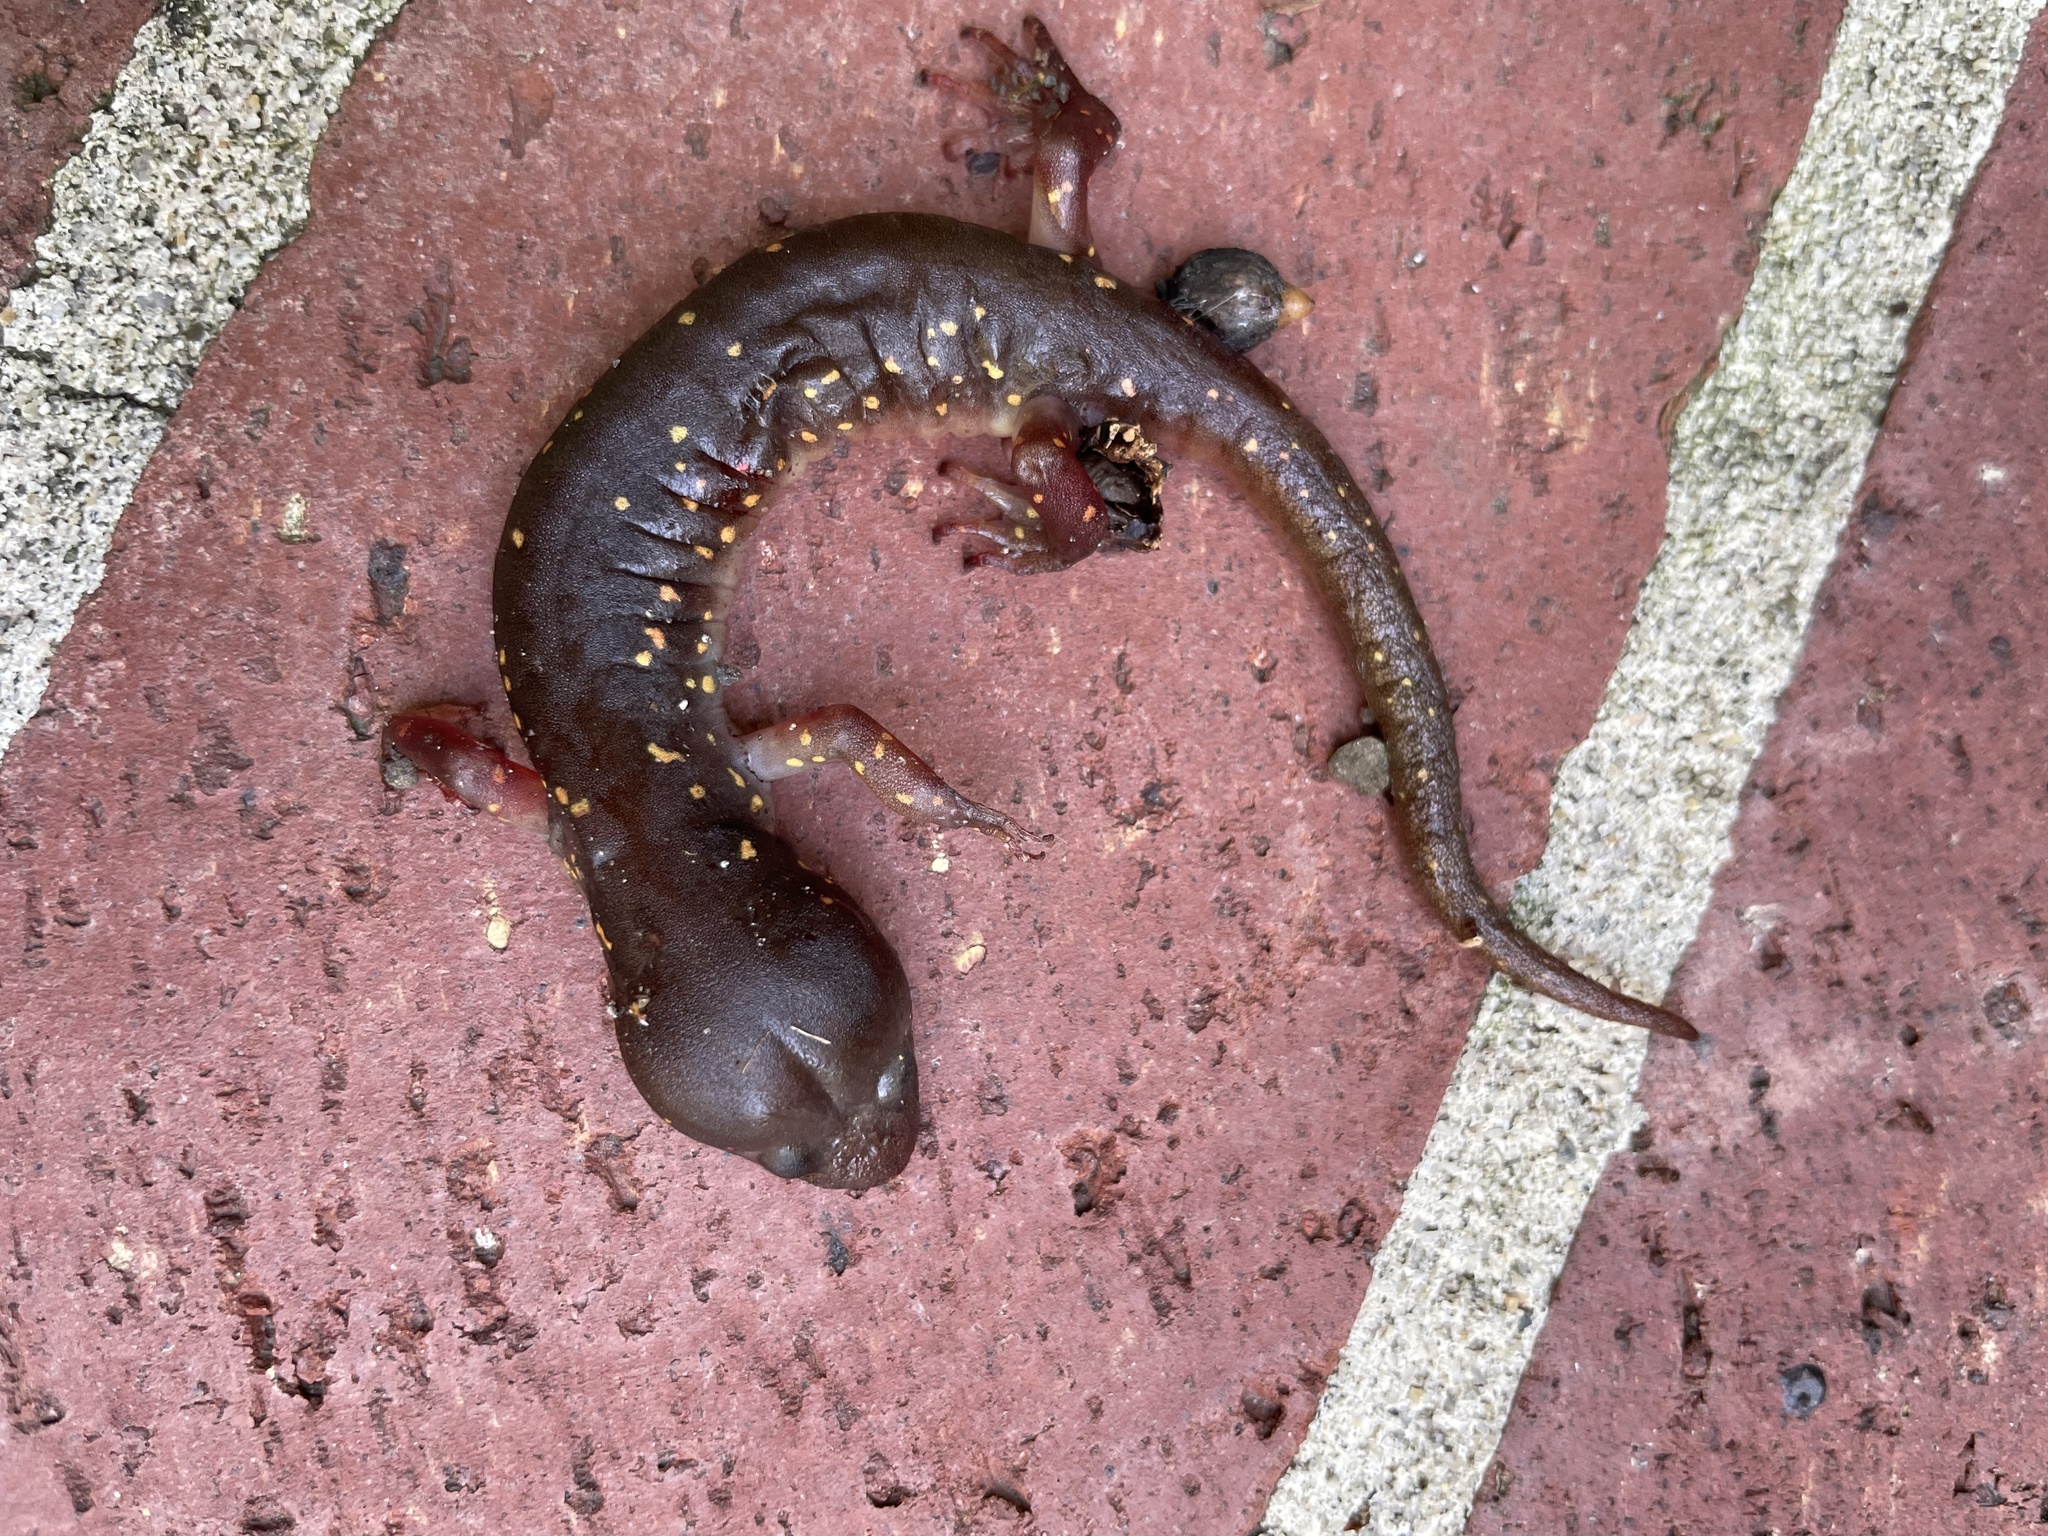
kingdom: Animalia
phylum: Chordata
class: Amphibia
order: Caudata
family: Plethodontidae
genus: Aneides
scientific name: Aneides lugubris
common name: Arboreal salamander
